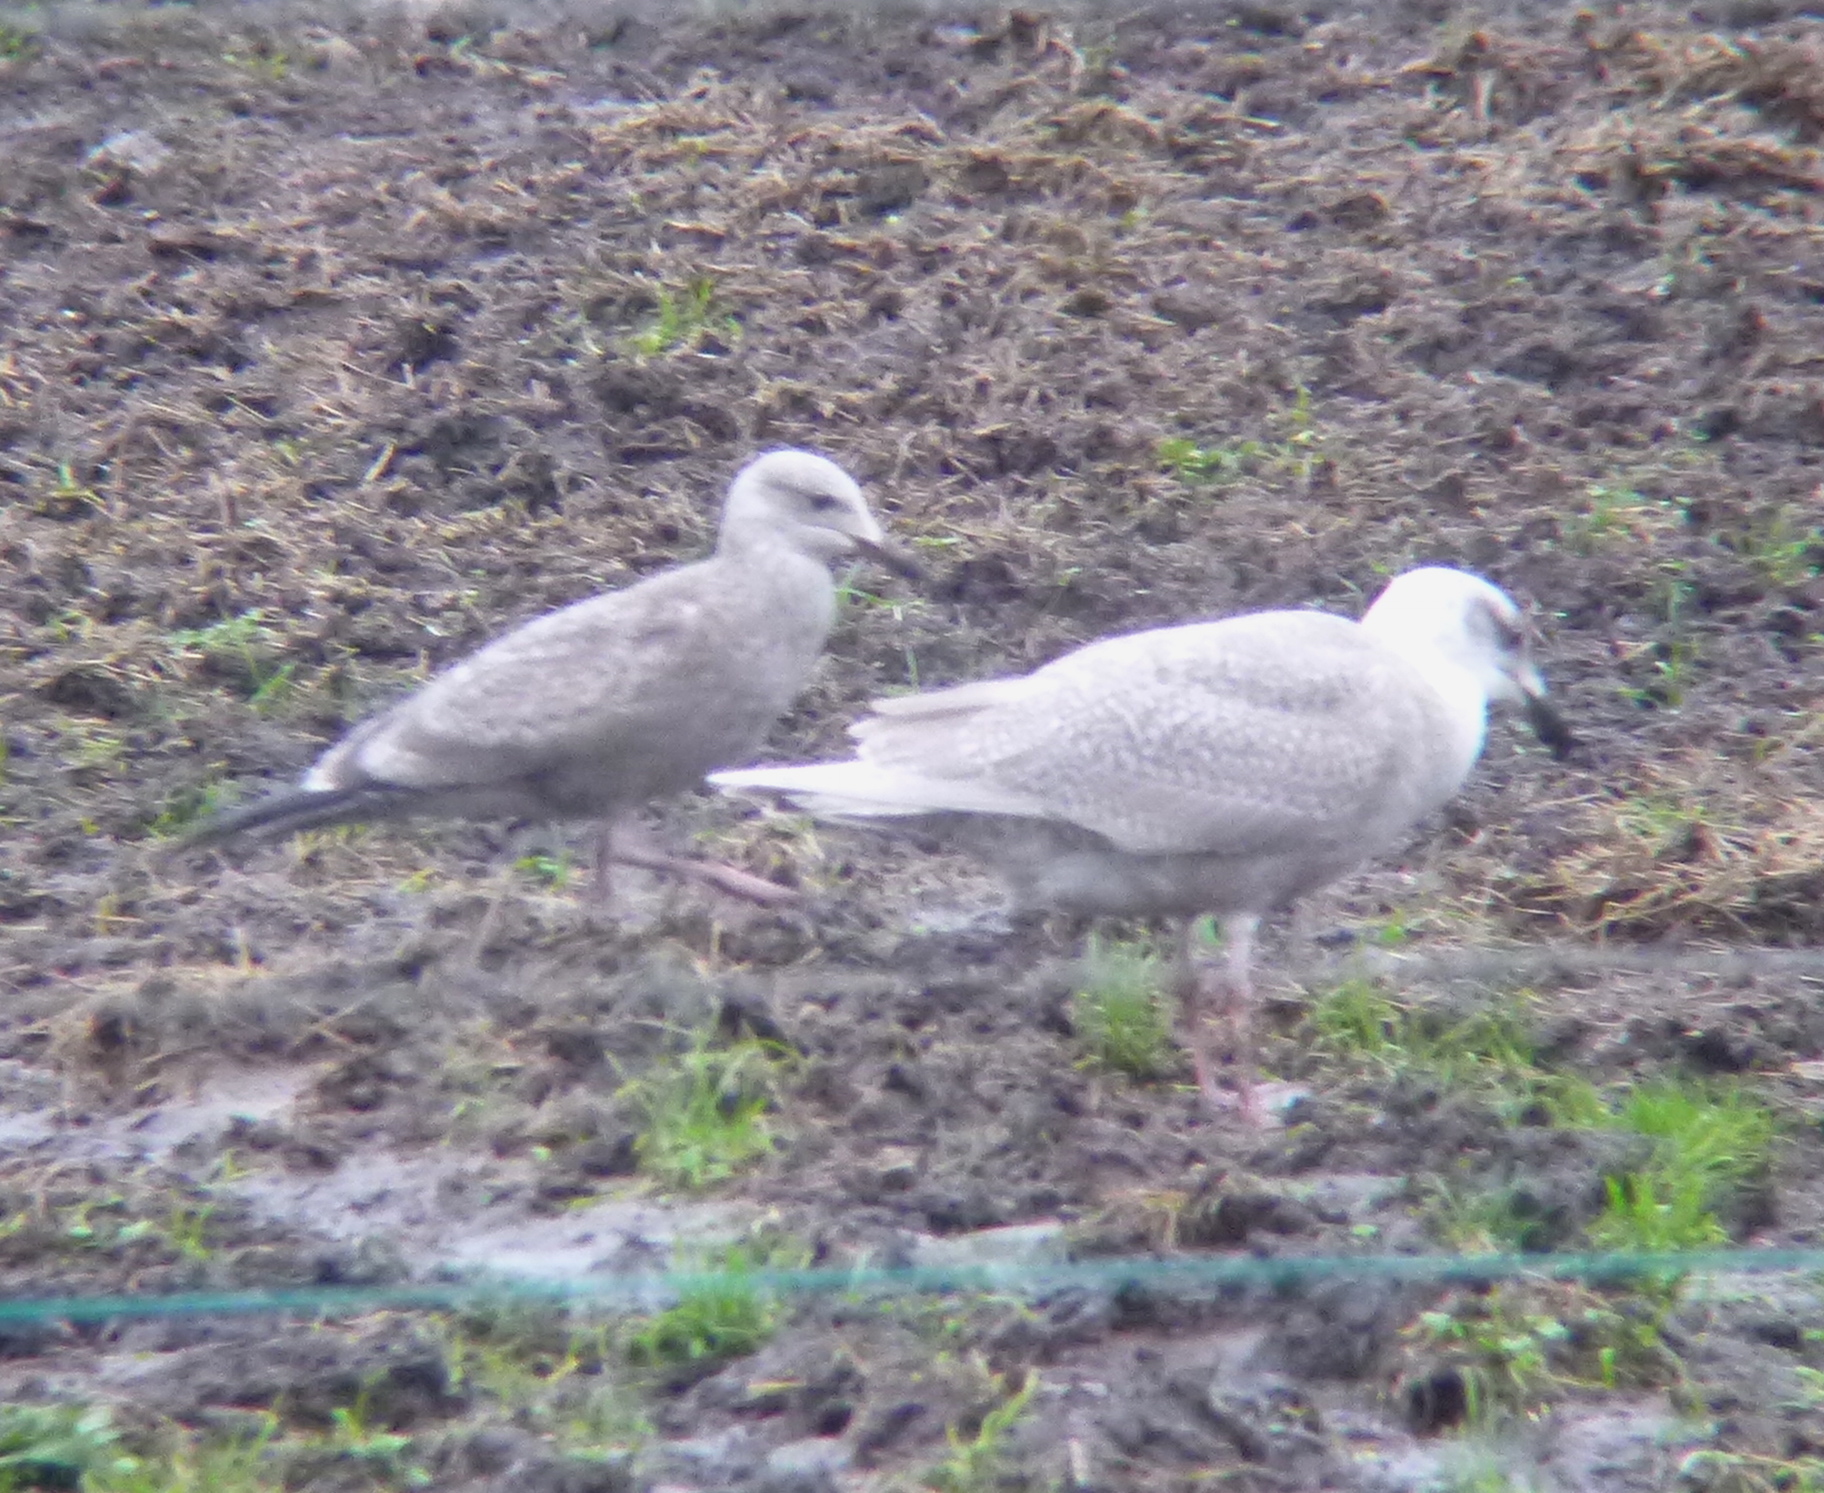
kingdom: Animalia
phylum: Chordata
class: Aves
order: Charadriiformes
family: Laridae
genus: Larus
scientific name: Larus glaucescens
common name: Glaucous-winged gull
